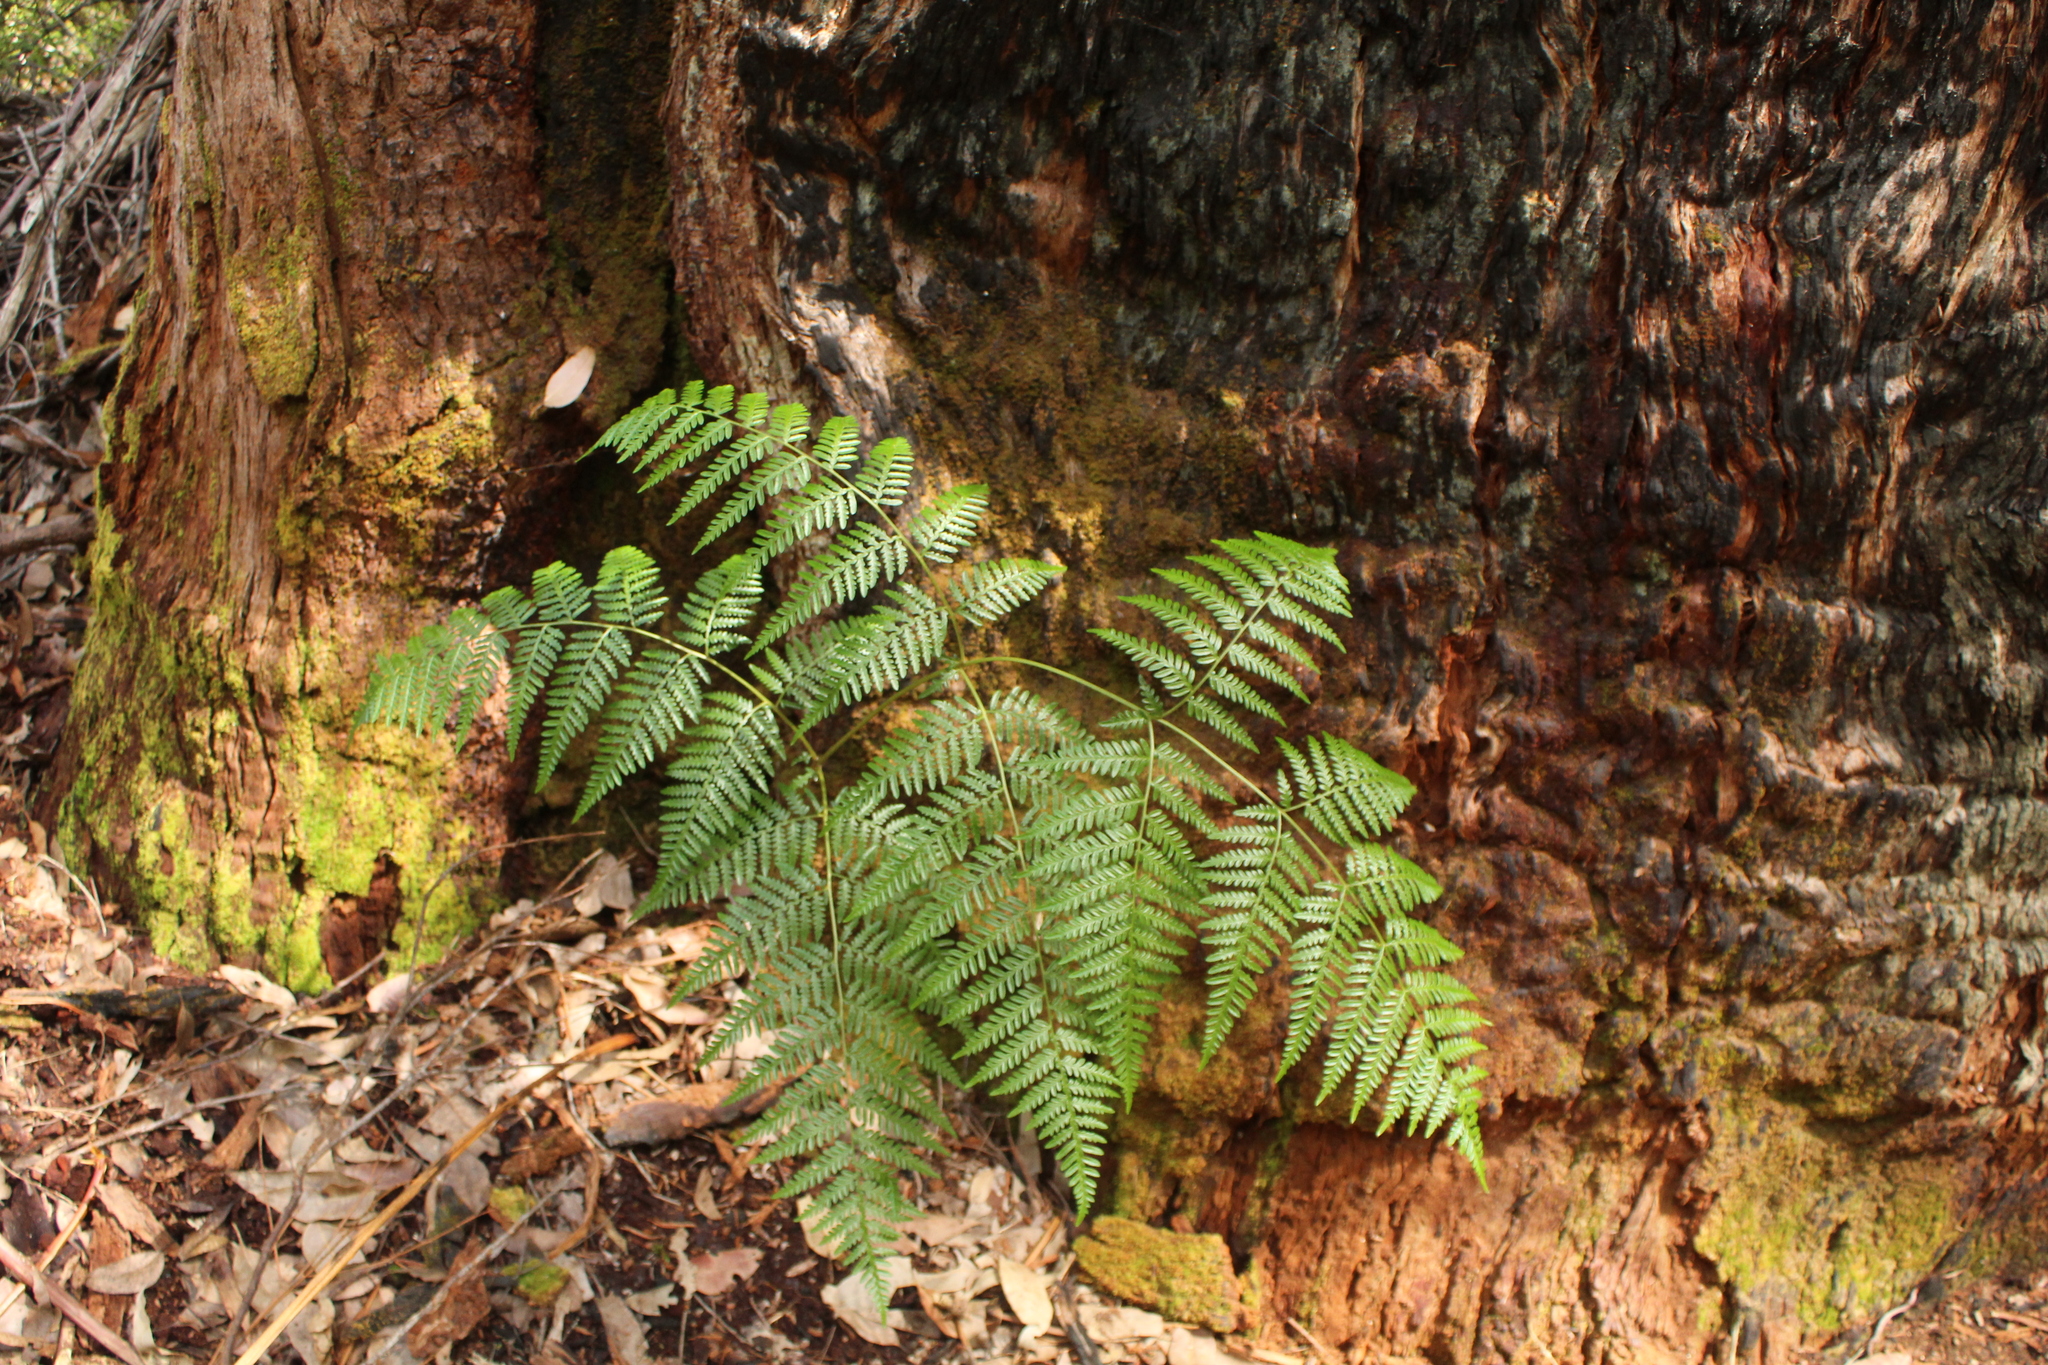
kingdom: Plantae
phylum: Tracheophyta
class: Polypodiopsida
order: Polypodiales
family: Dennstaedtiaceae
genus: Pteridium
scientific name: Pteridium esculentum
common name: Bracken fern
